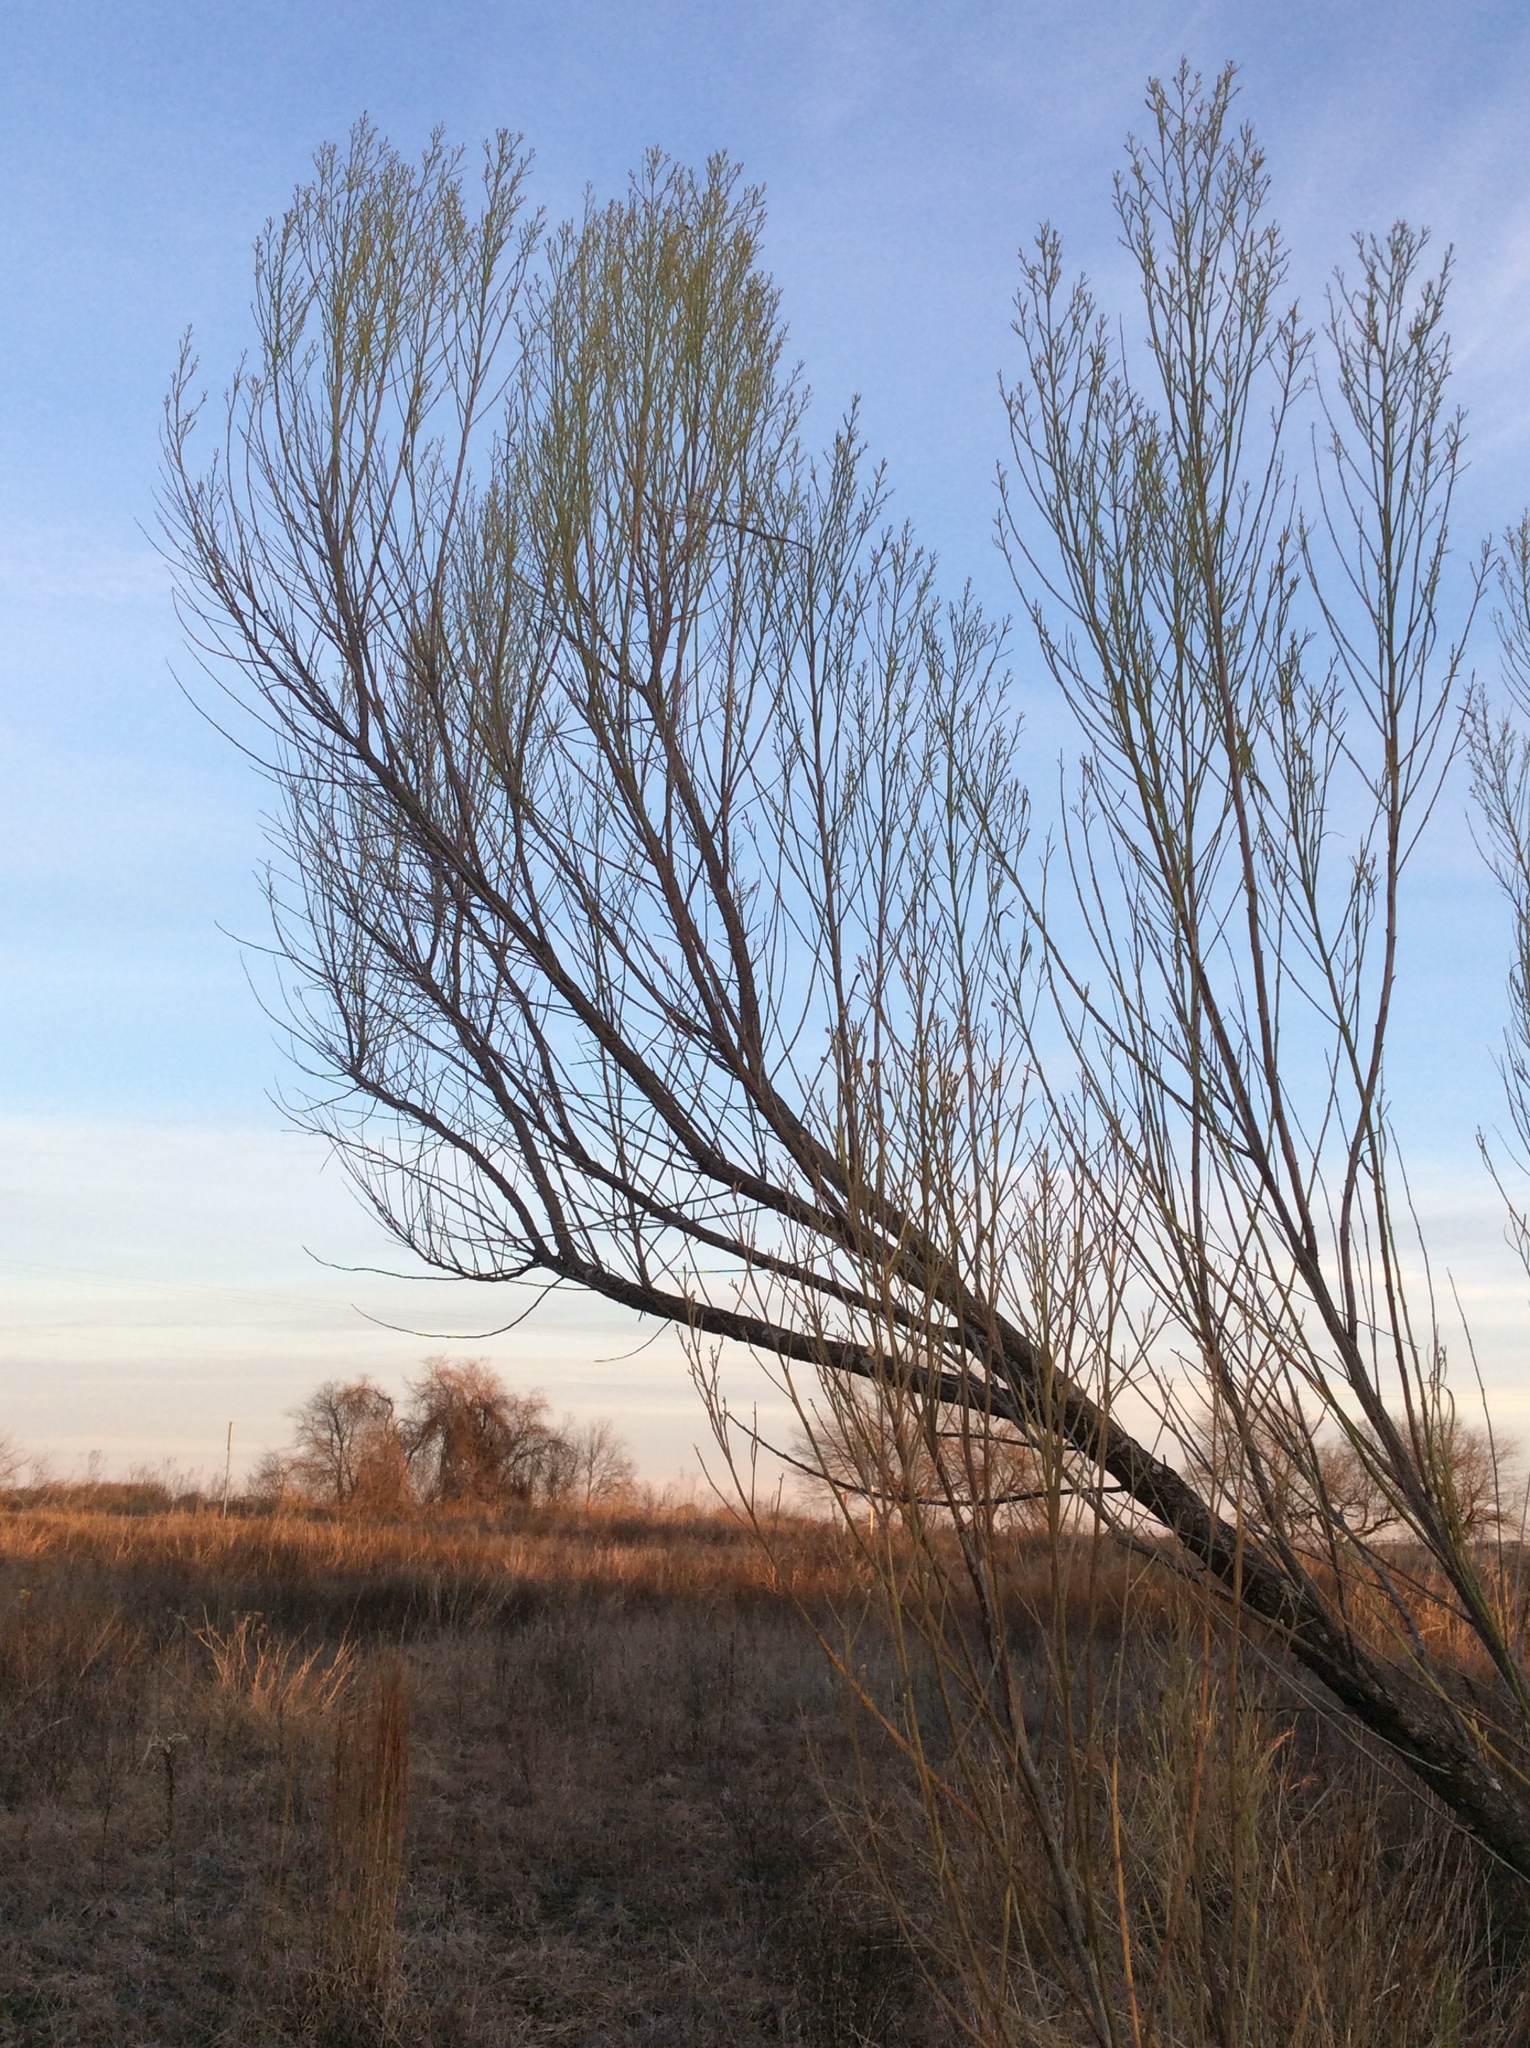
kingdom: Plantae
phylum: Tracheophyta
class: Magnoliopsida
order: Asterales
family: Asteraceae
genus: Baccharis
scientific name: Baccharis neglecta
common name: Roosevelt-weed
